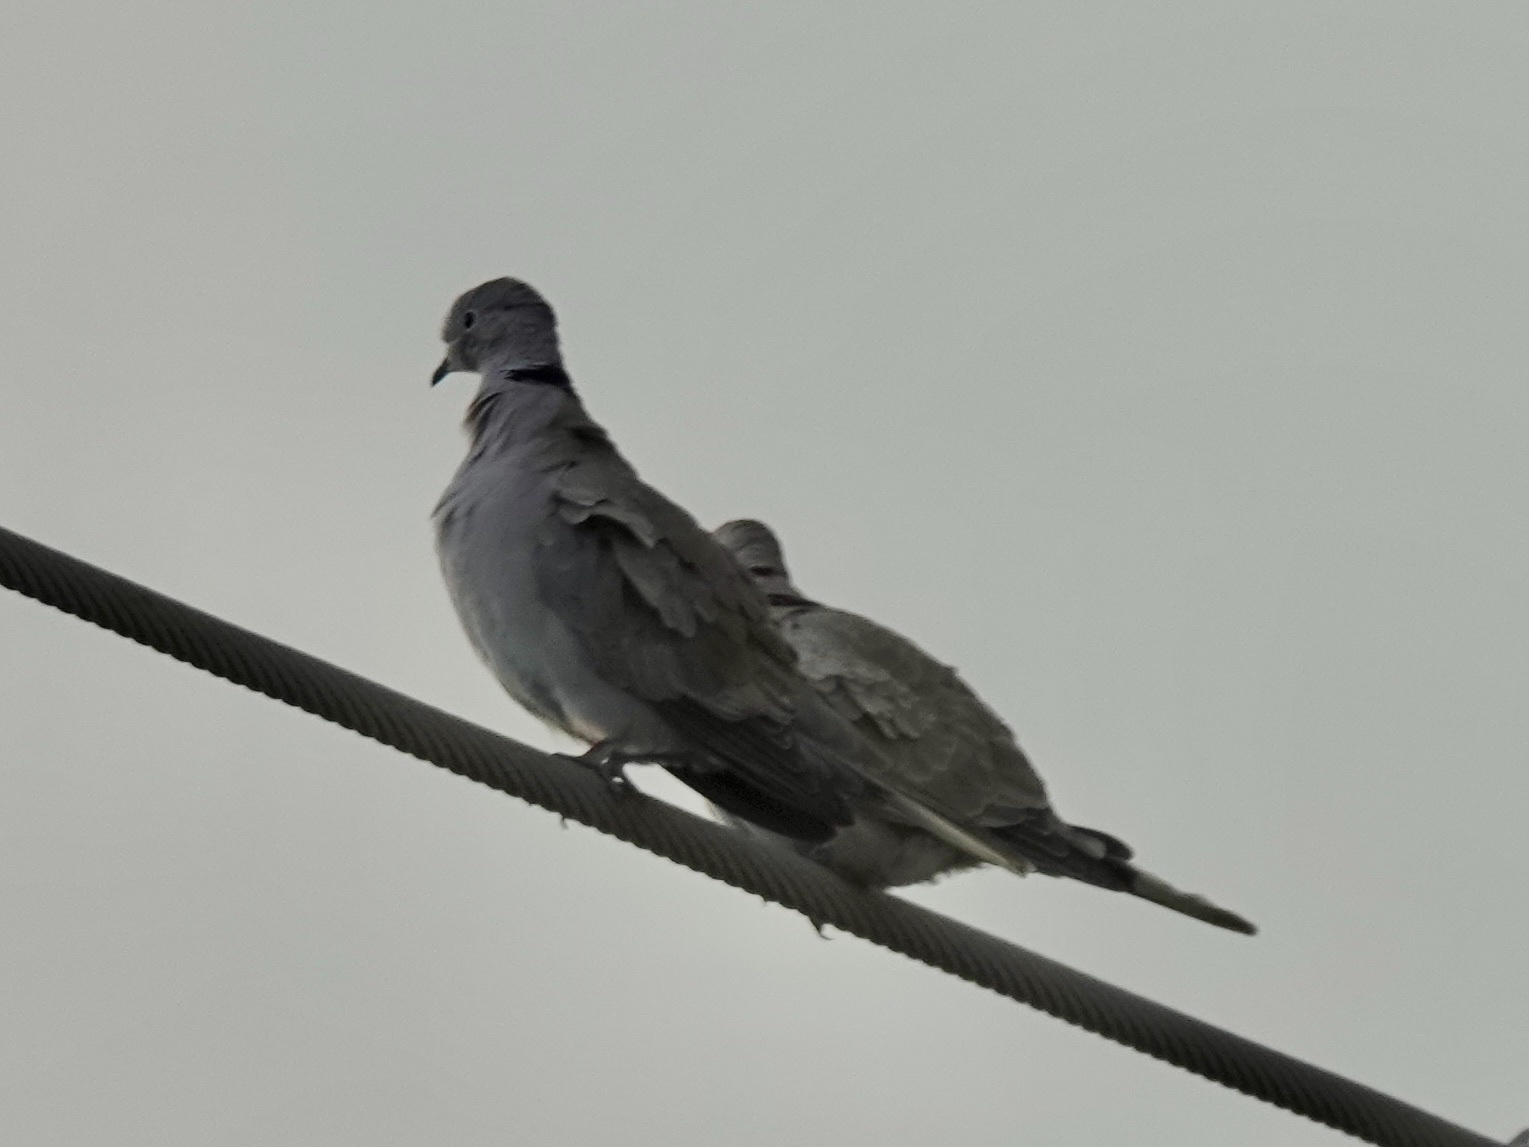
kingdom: Animalia
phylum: Chordata
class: Aves
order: Columbiformes
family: Columbidae
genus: Streptopelia
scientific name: Streptopelia decaocto
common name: Eurasian collared dove
